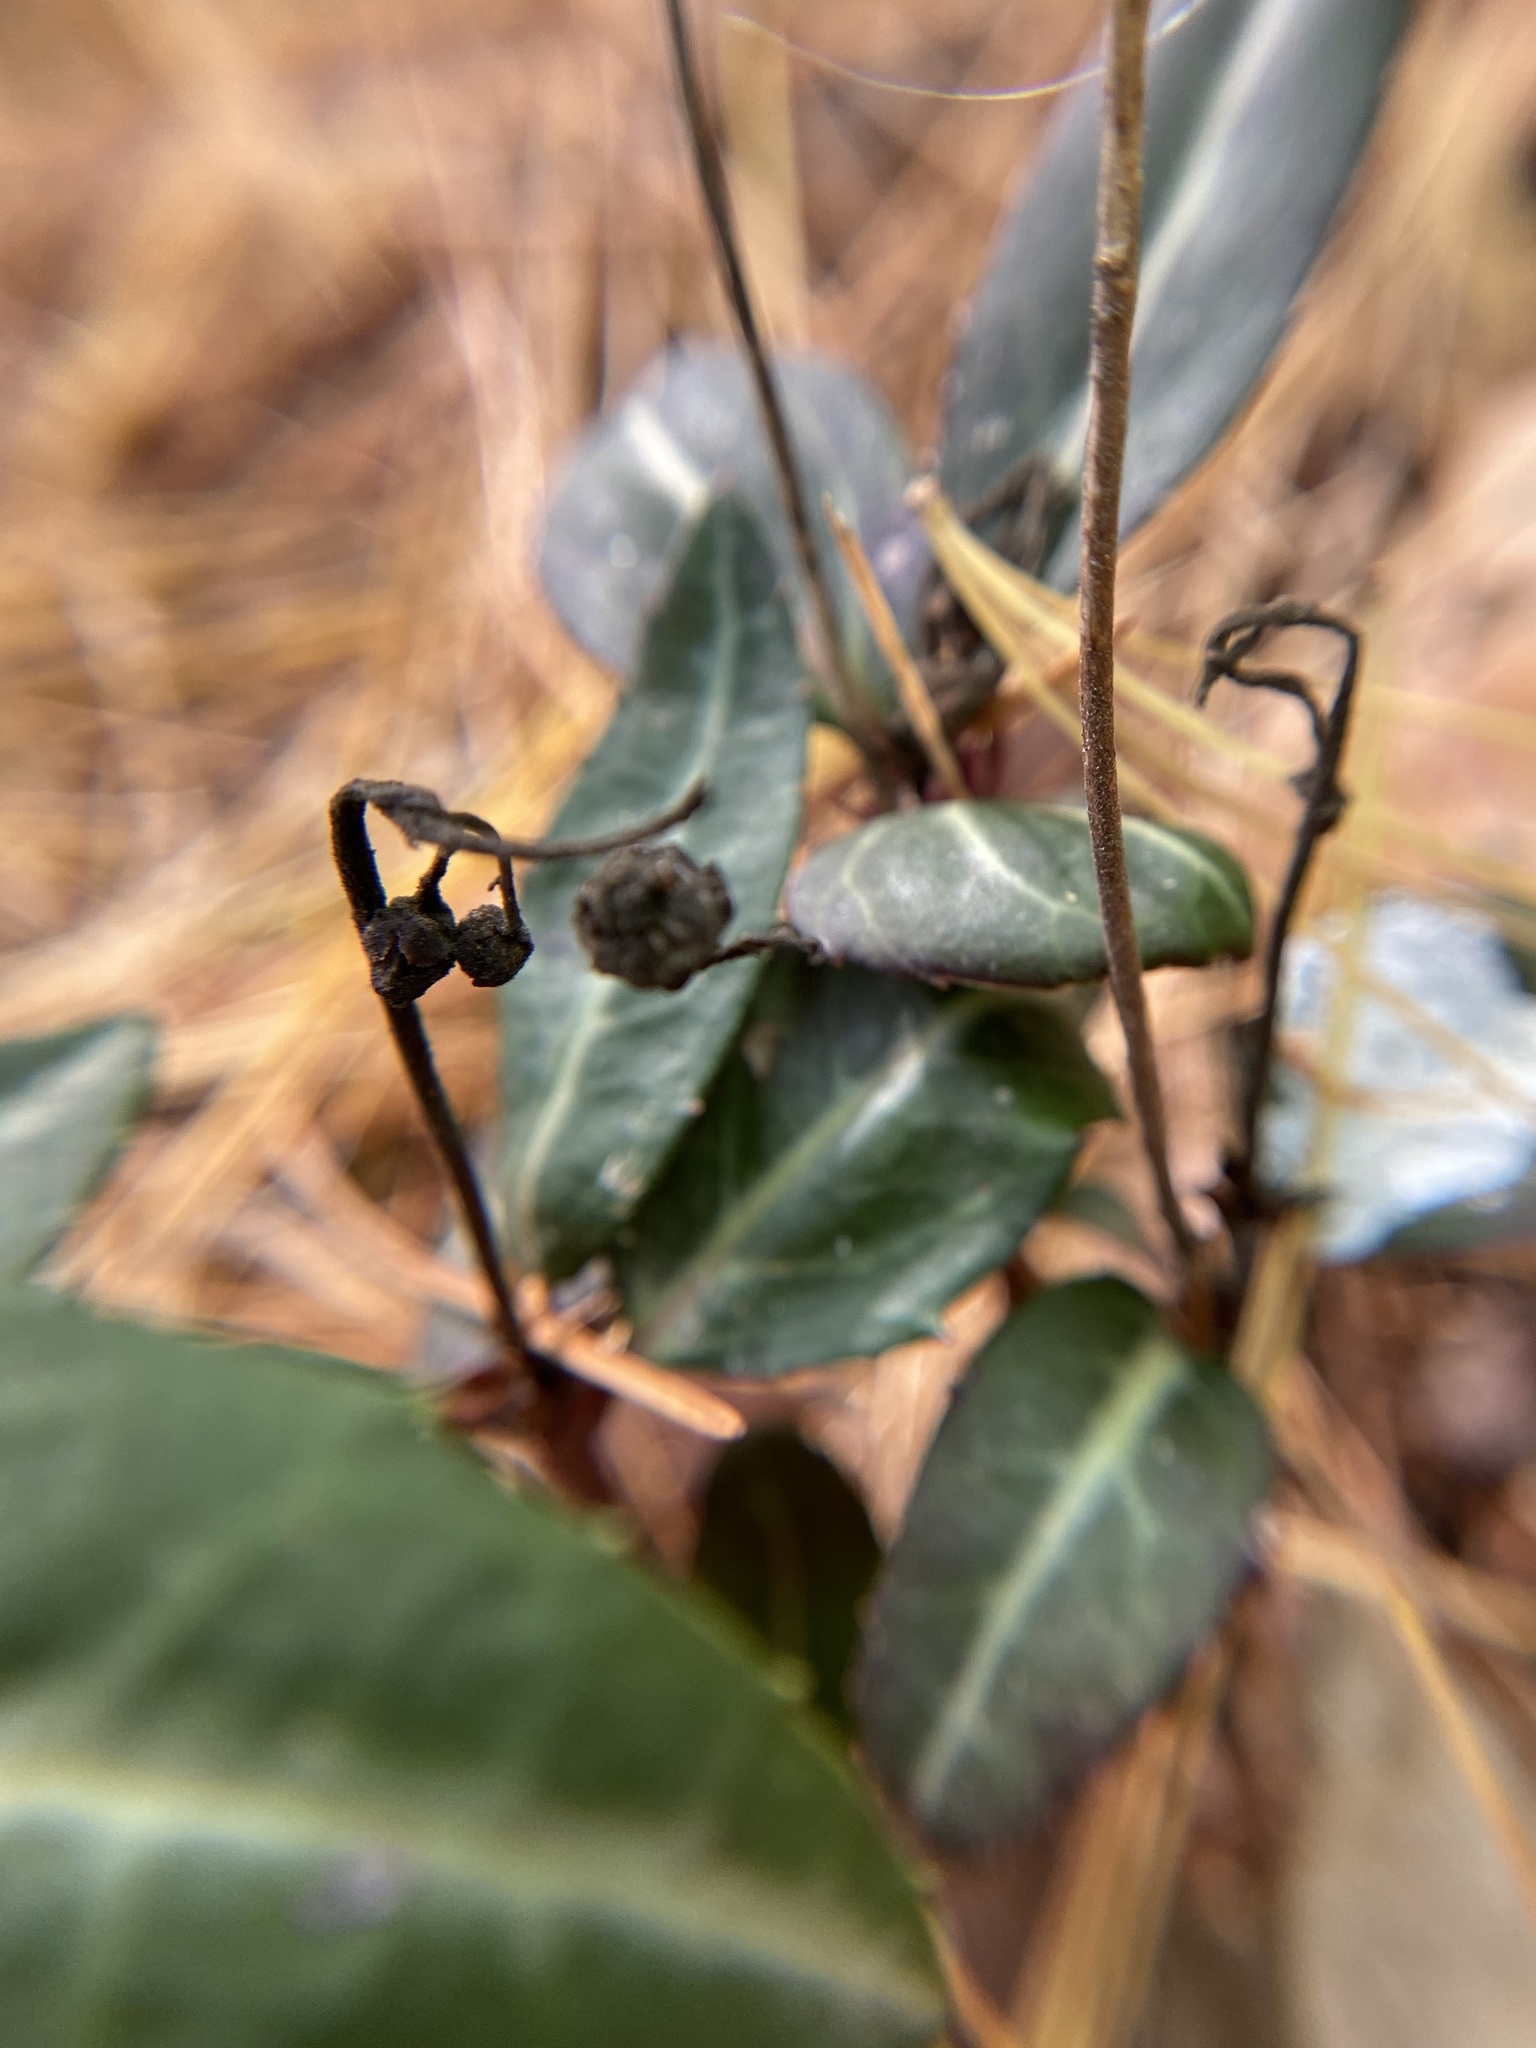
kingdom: Plantae
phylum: Tracheophyta
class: Magnoliopsida
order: Ericales
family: Ericaceae
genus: Chimaphila
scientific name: Chimaphila maculata
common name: Spotted pipsissewa
